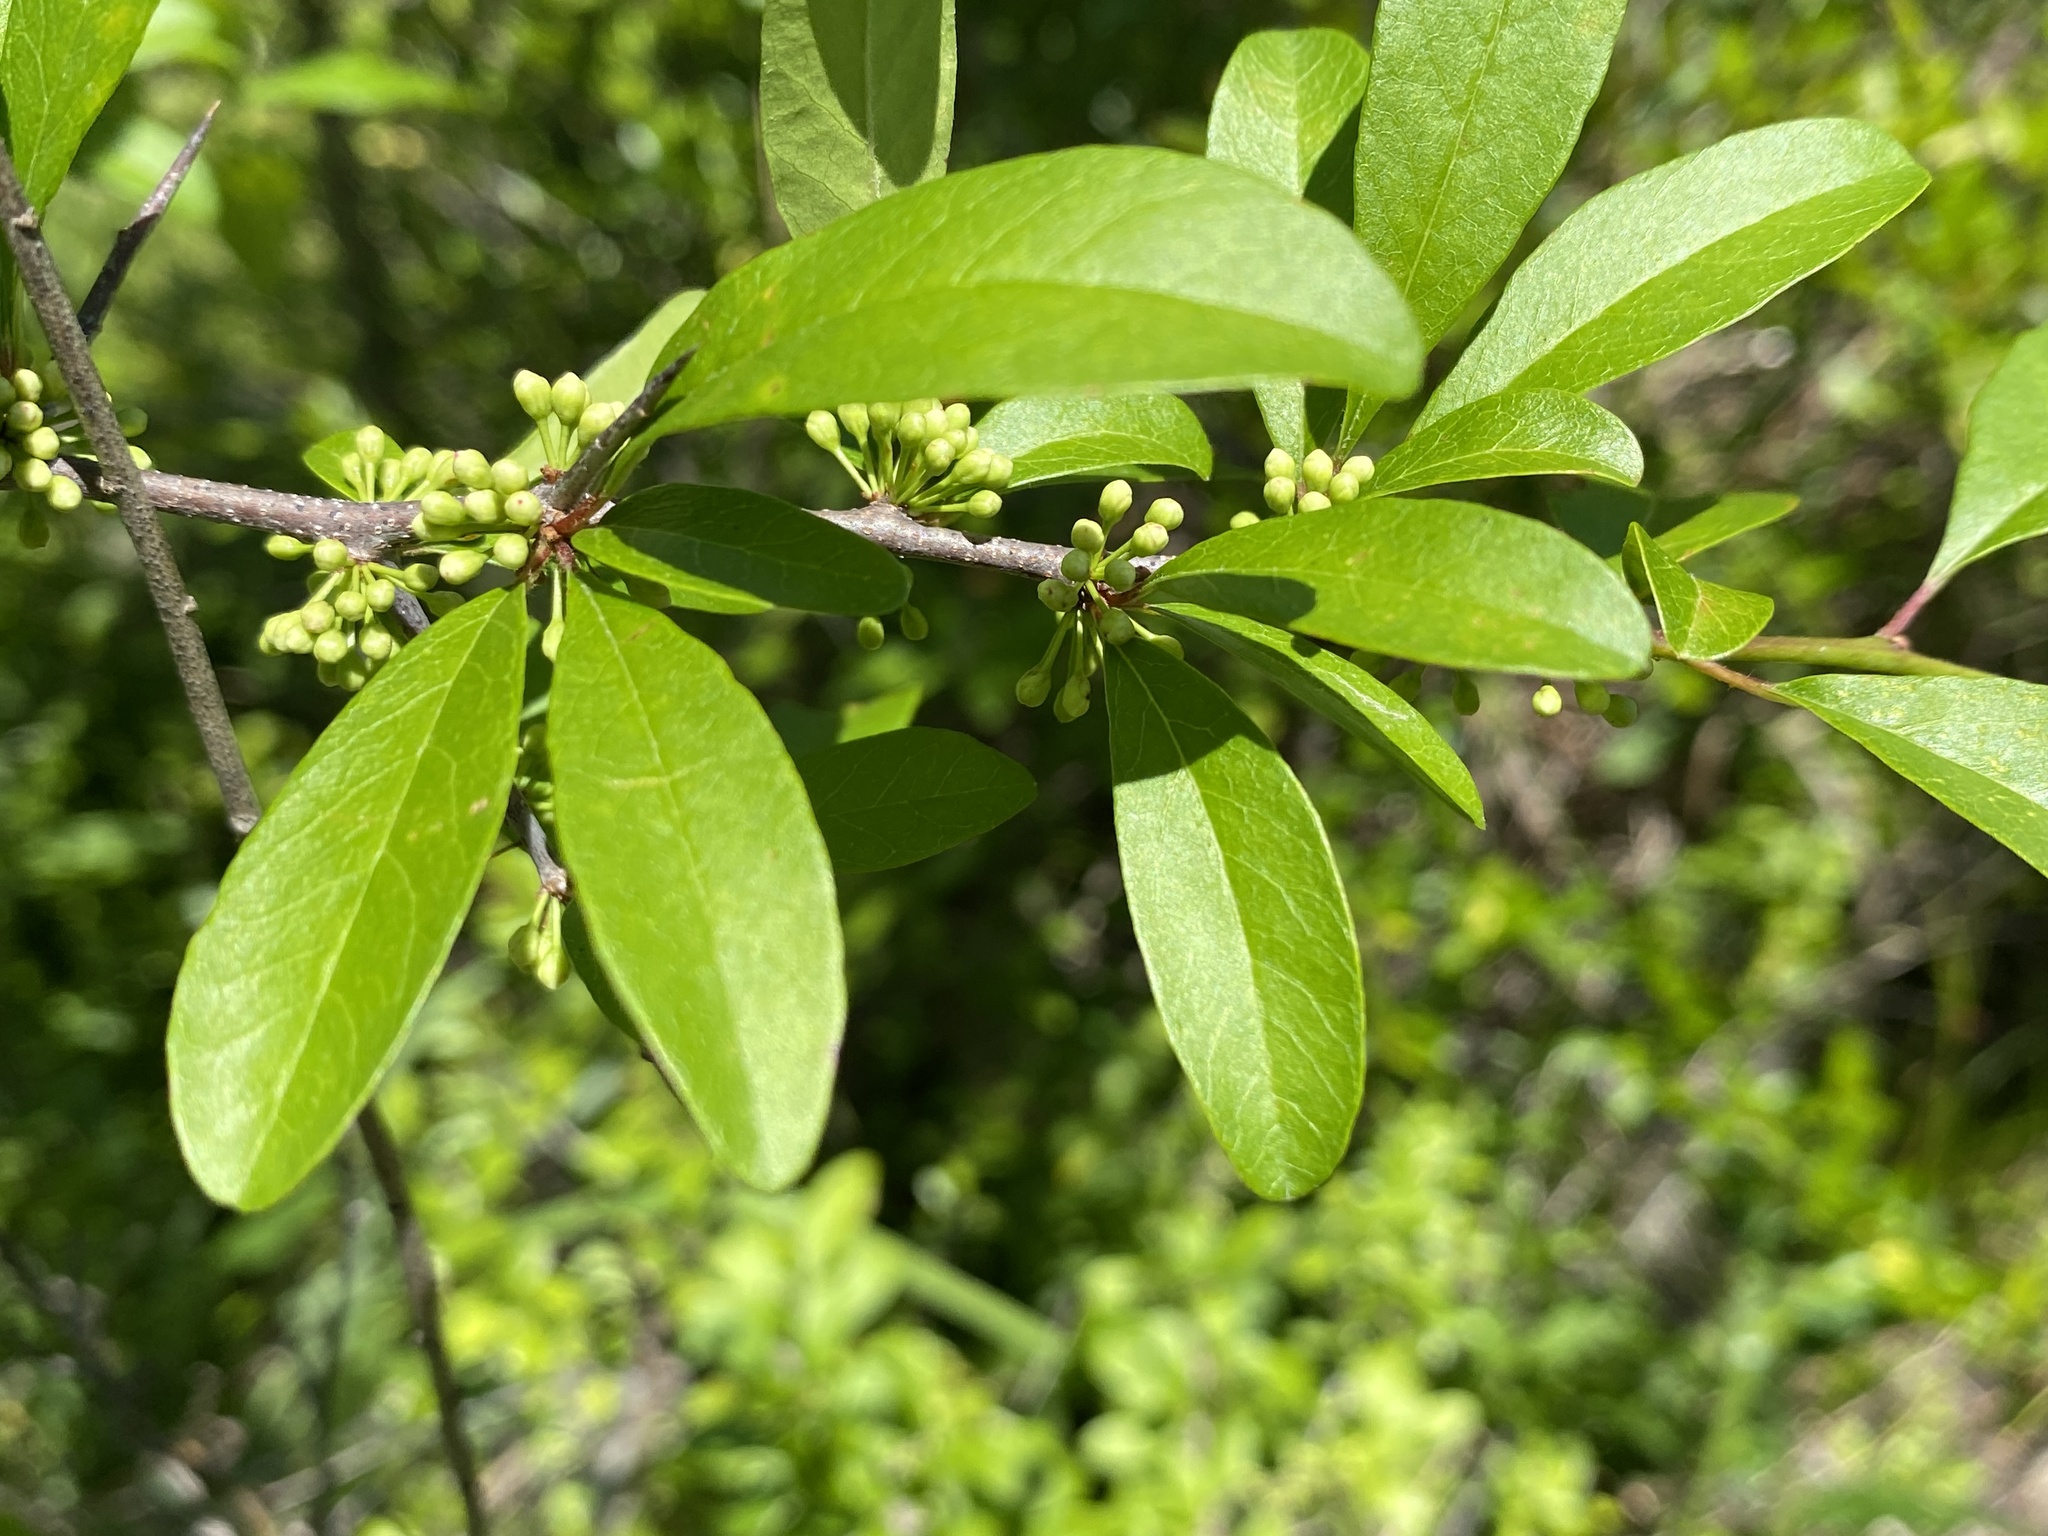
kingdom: Plantae
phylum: Tracheophyta
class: Magnoliopsida
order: Ericales
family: Sapotaceae
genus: Sideroxylon
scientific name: Sideroxylon reclinatum
